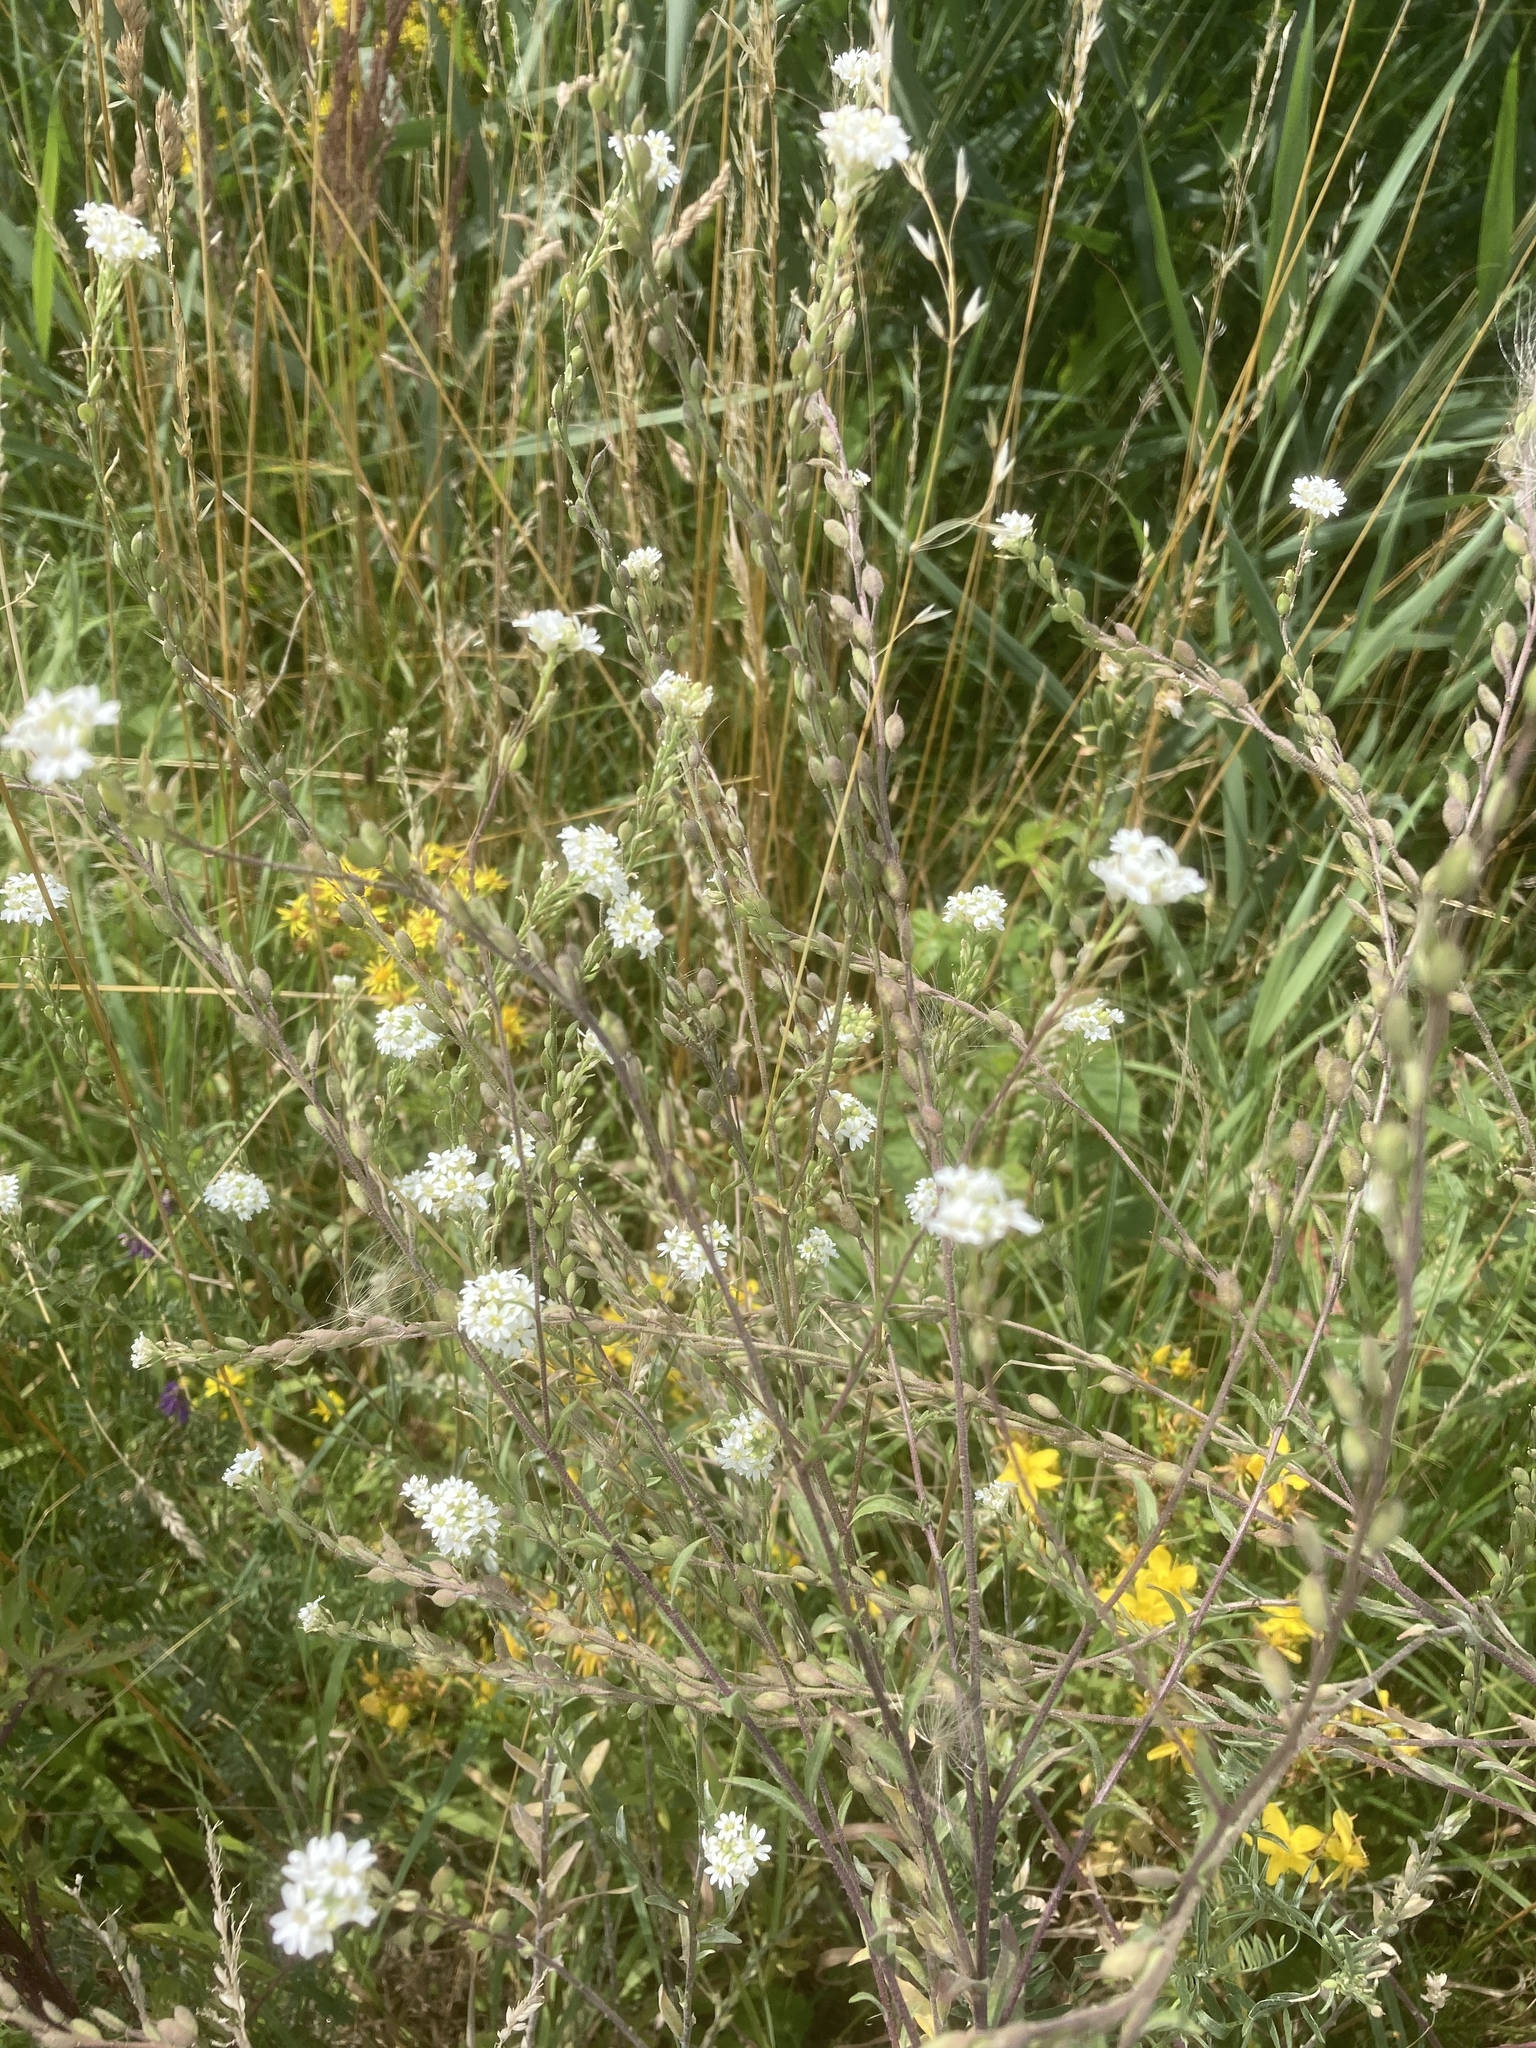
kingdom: Plantae
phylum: Tracheophyta
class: Magnoliopsida
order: Brassicales
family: Brassicaceae
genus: Berteroa
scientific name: Berteroa incana
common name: Hoary alison
